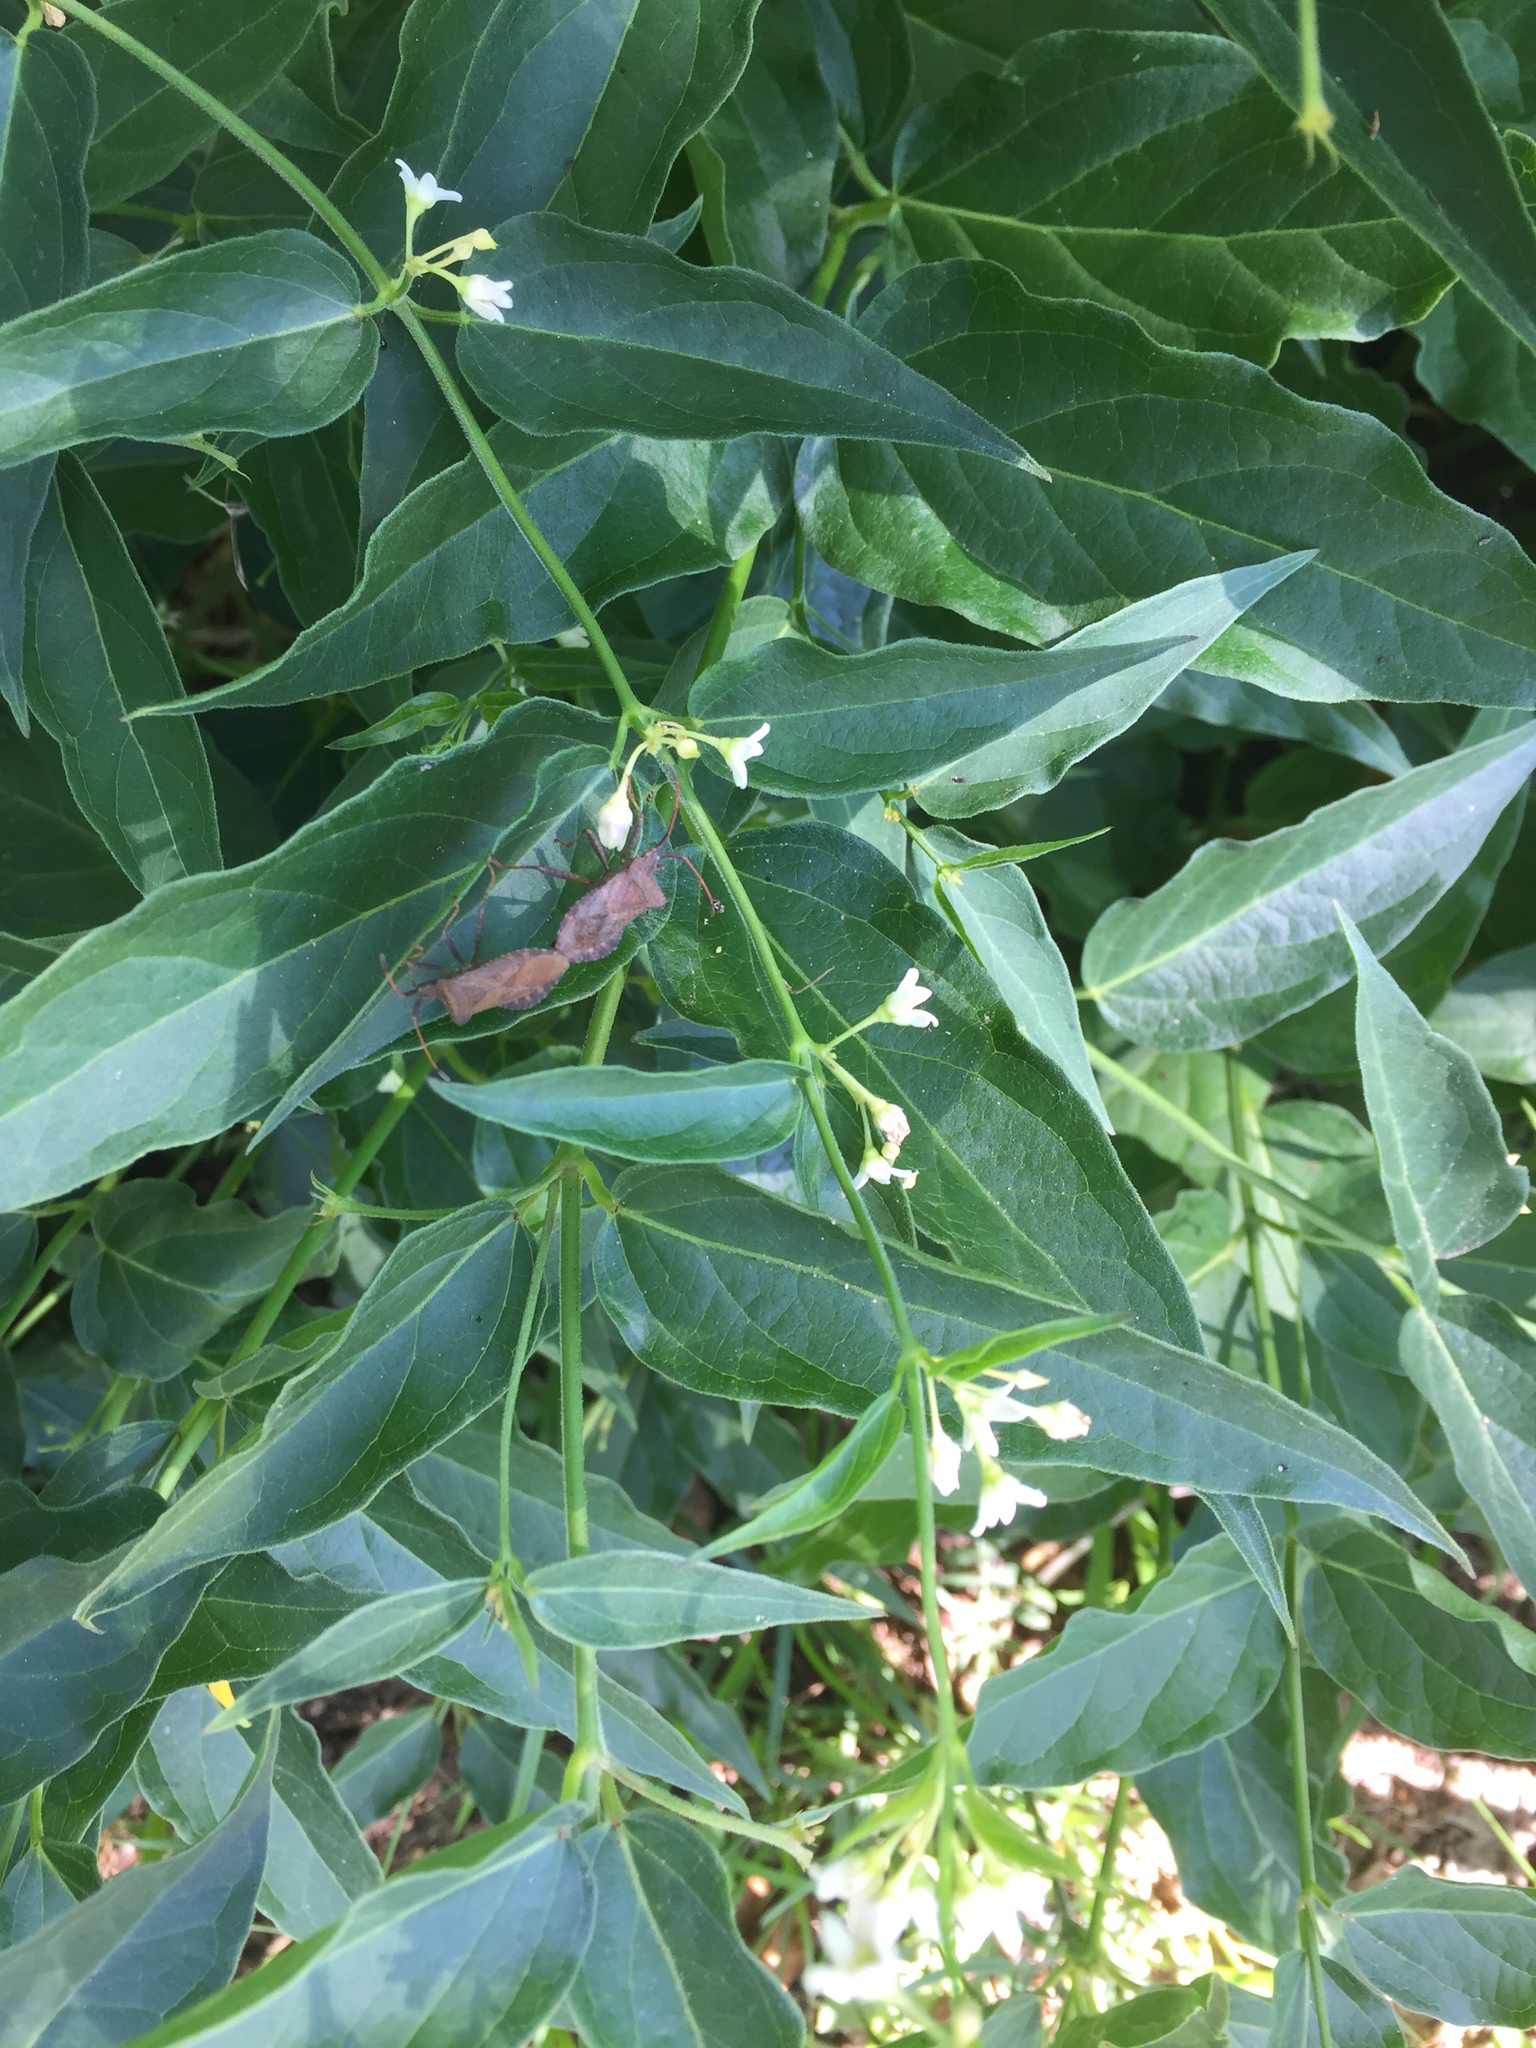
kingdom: Plantae
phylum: Tracheophyta
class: Magnoliopsida
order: Gentianales
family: Apocynaceae
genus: Vincetoxicum
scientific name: Vincetoxicum hirundinaria
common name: White swallowwort
